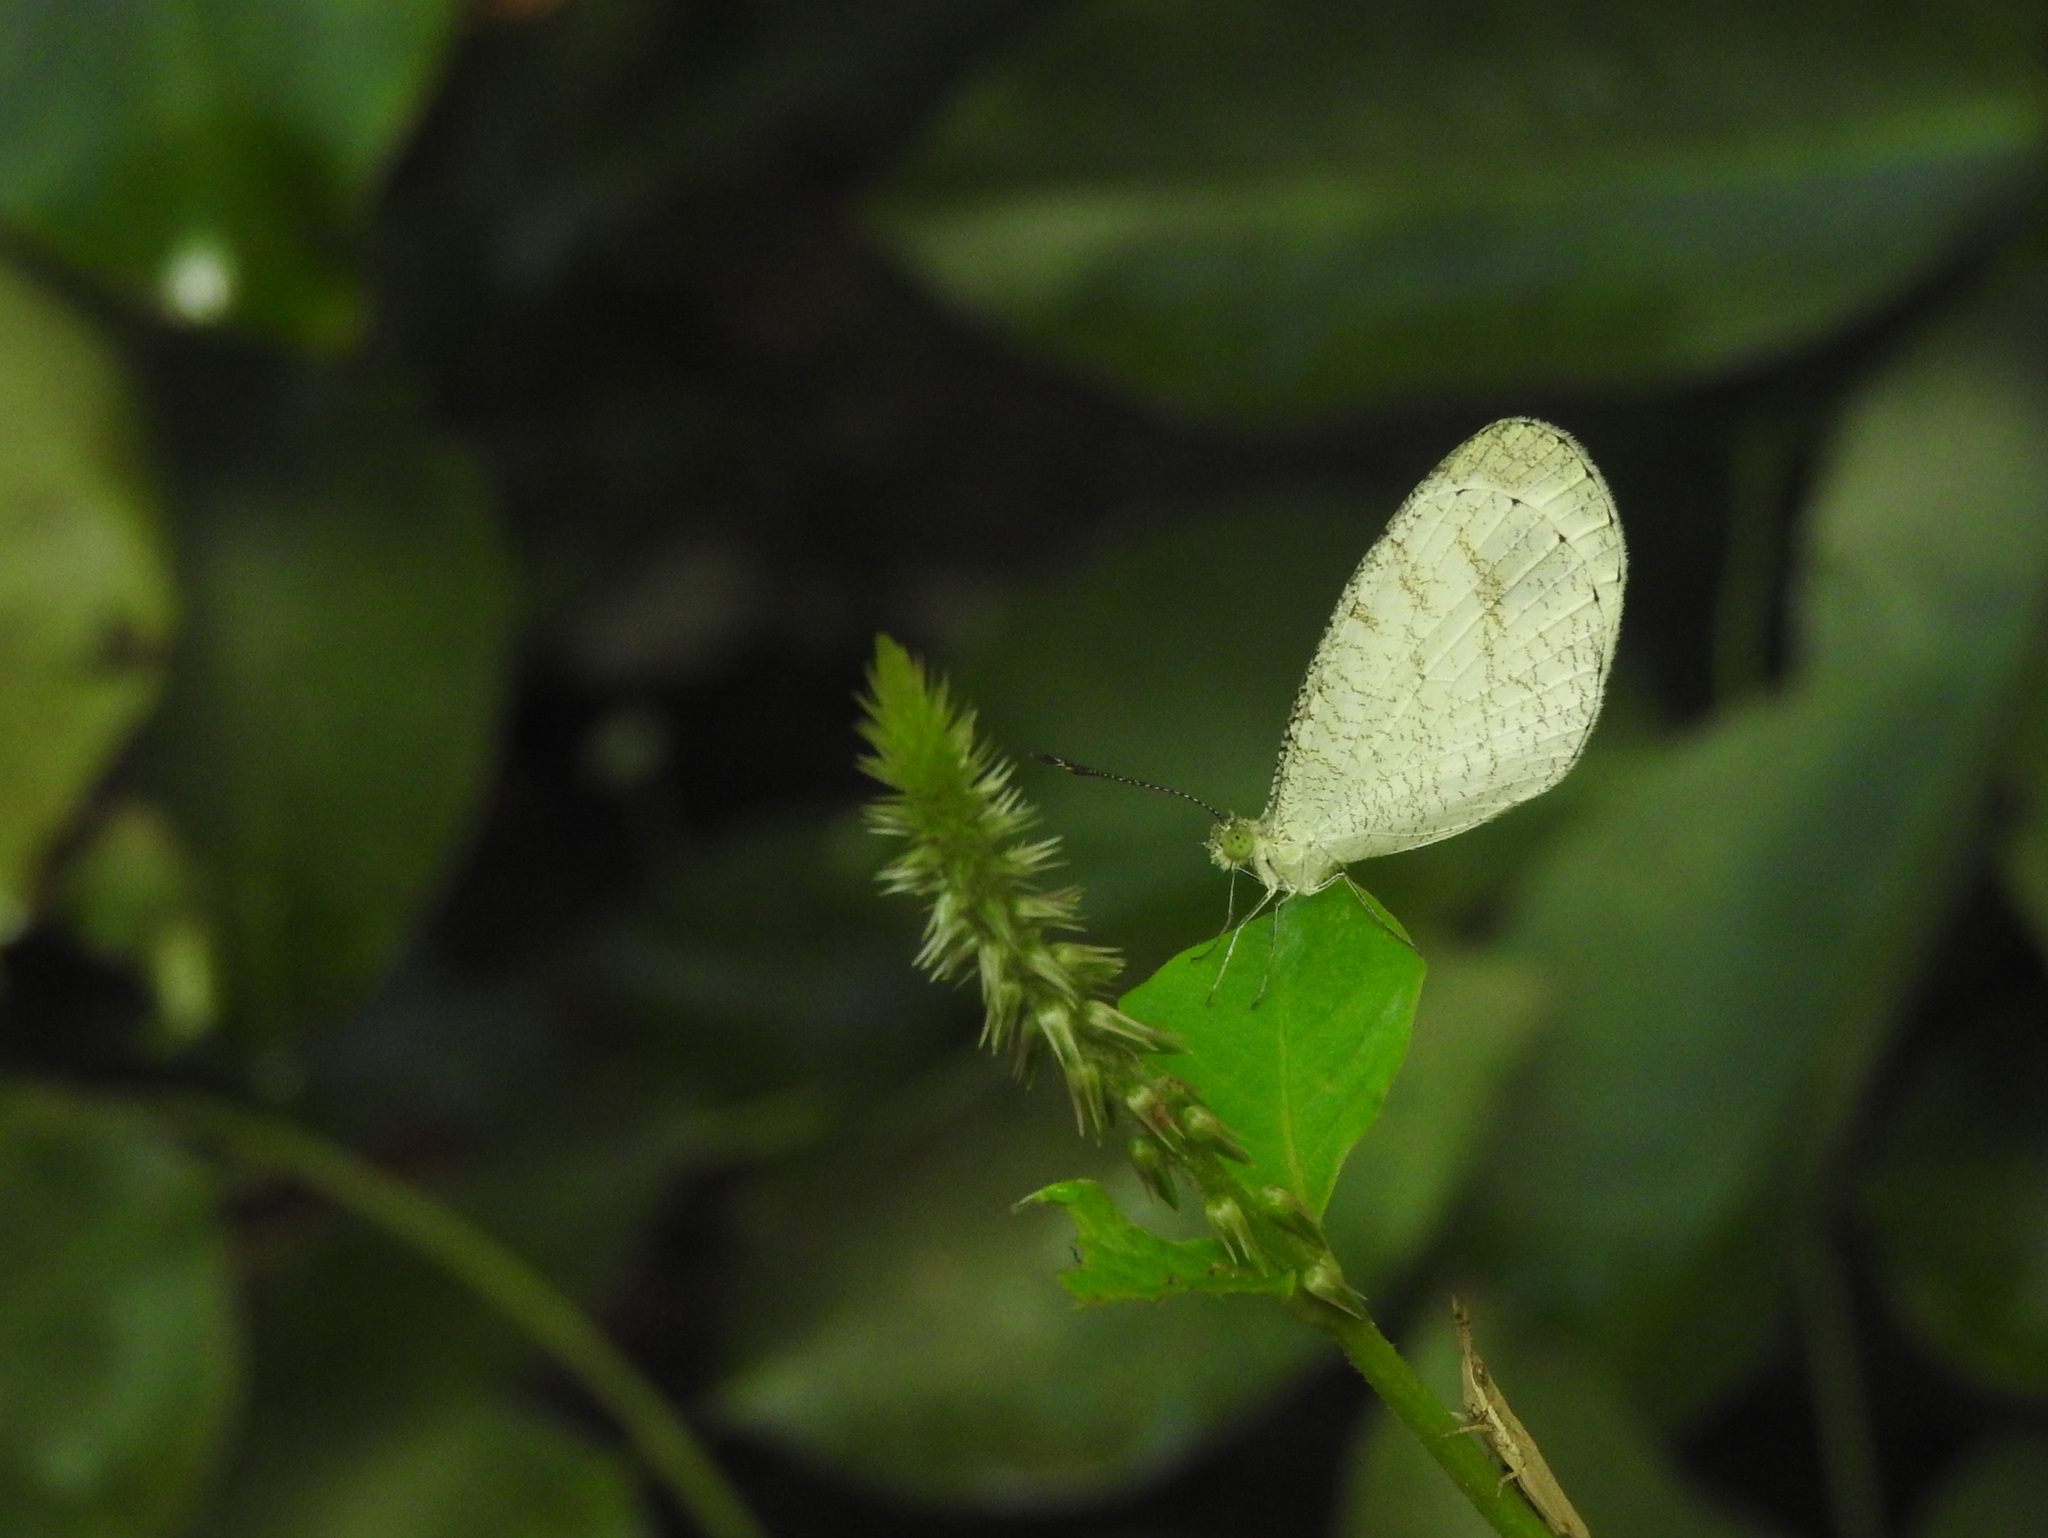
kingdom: Animalia
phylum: Arthropoda
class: Insecta
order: Lepidoptera
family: Pieridae
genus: Leptosia
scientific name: Leptosia nina
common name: Psyche
